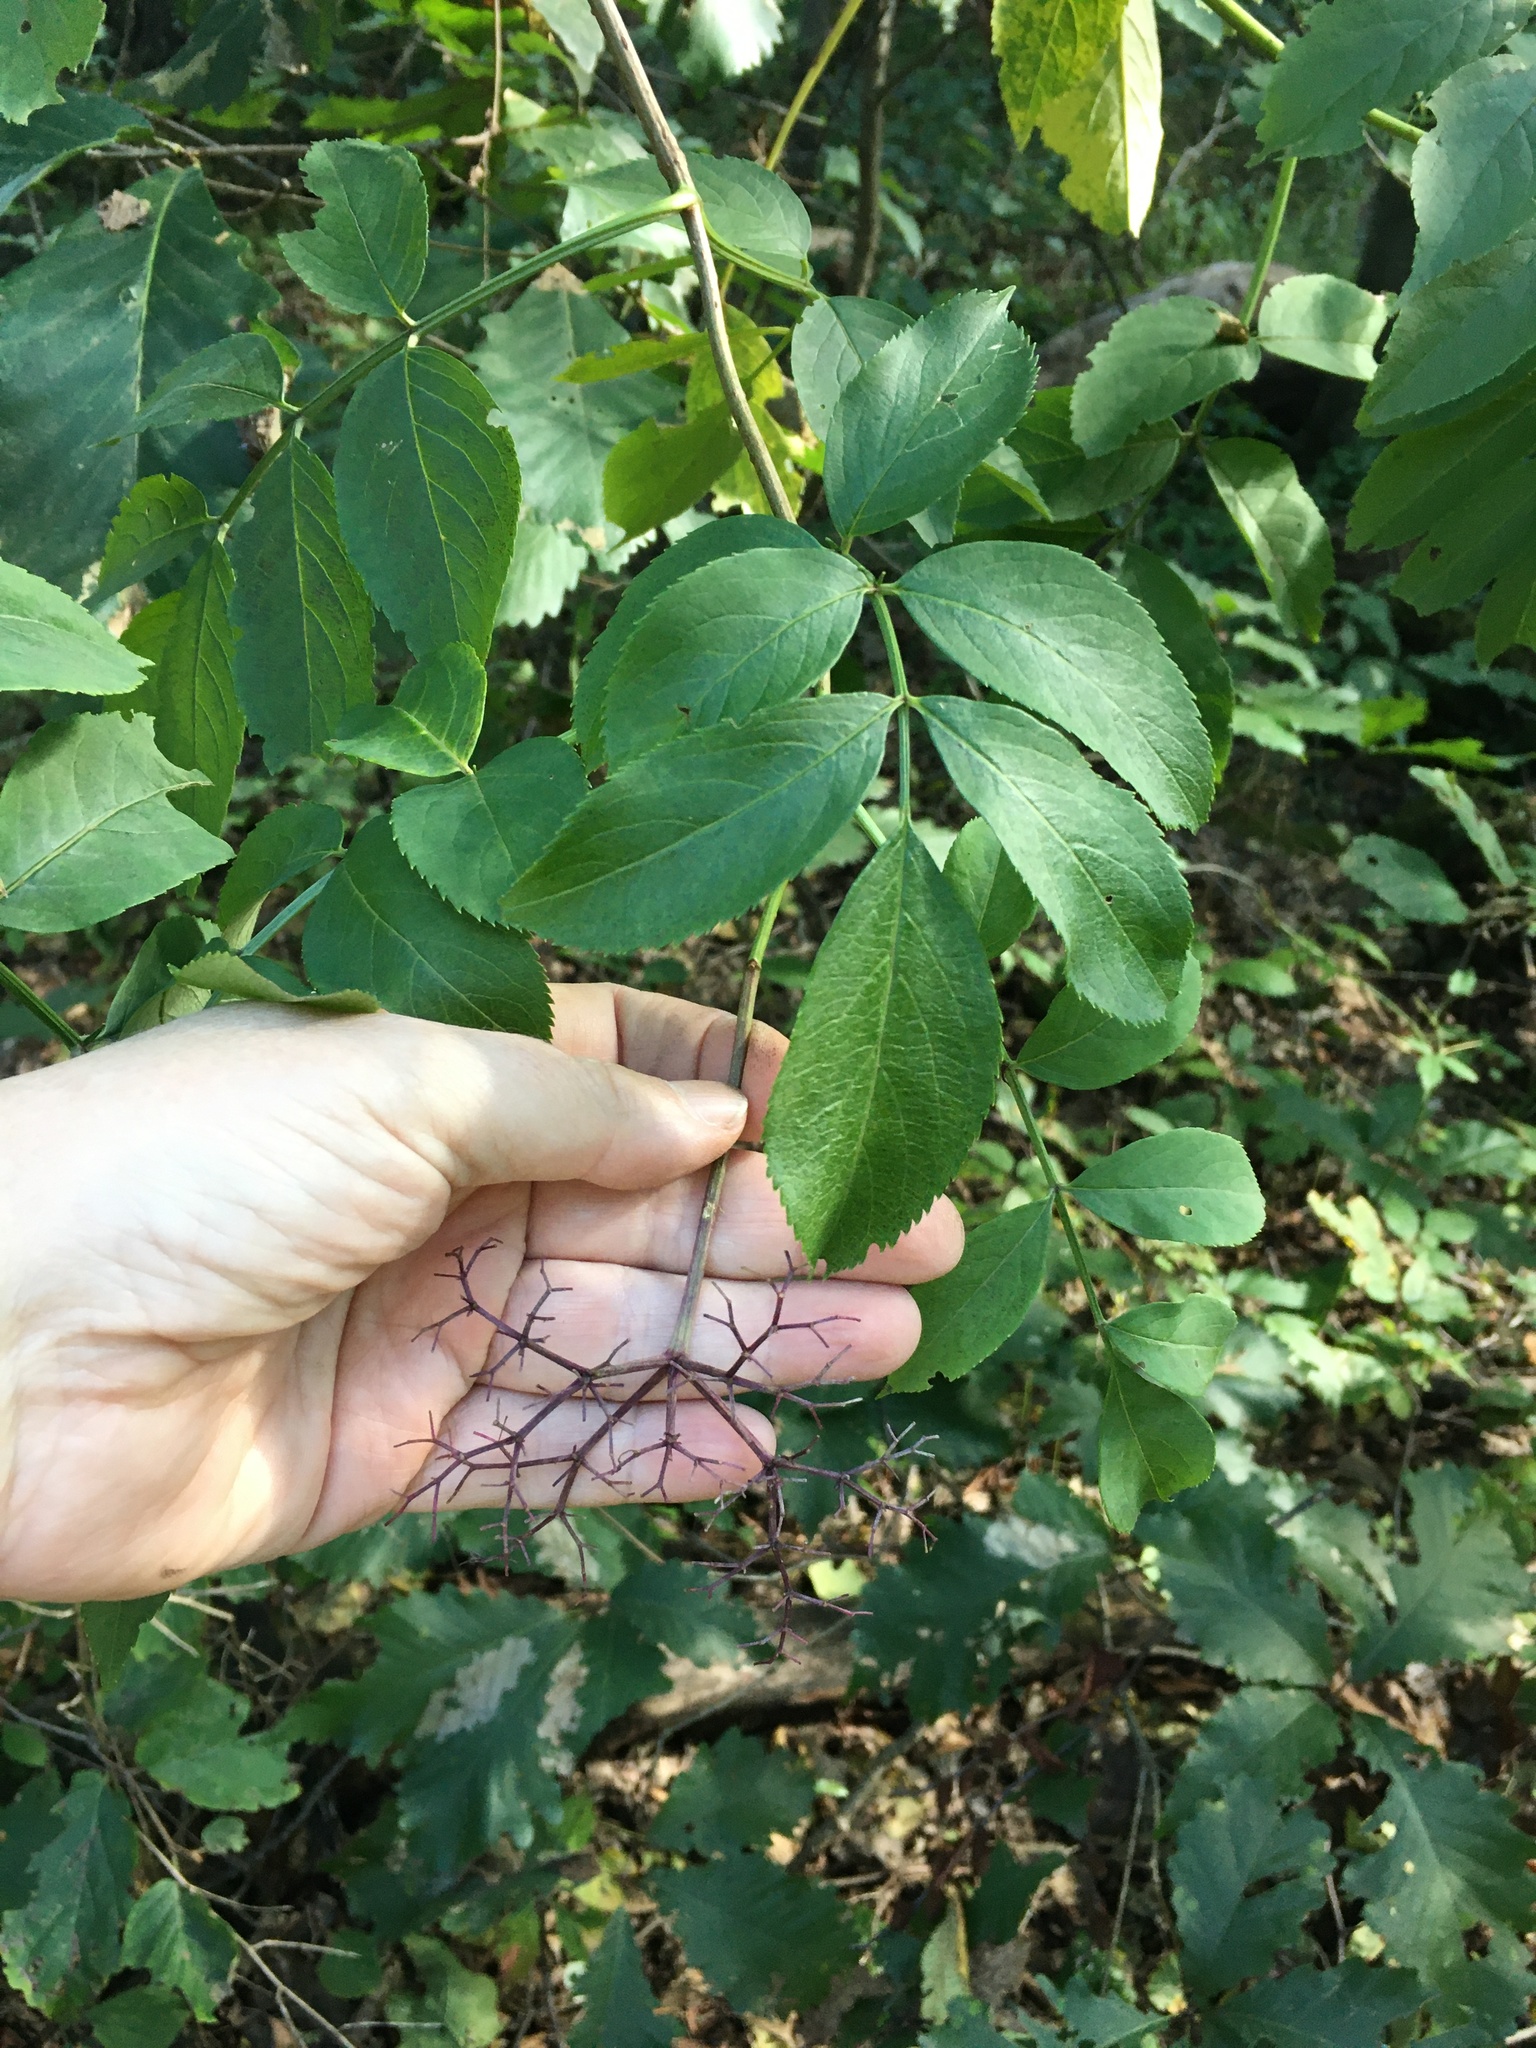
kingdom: Plantae
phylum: Tracheophyta
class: Magnoliopsida
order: Dipsacales
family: Viburnaceae
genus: Sambucus
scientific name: Sambucus canadensis
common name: American elder
